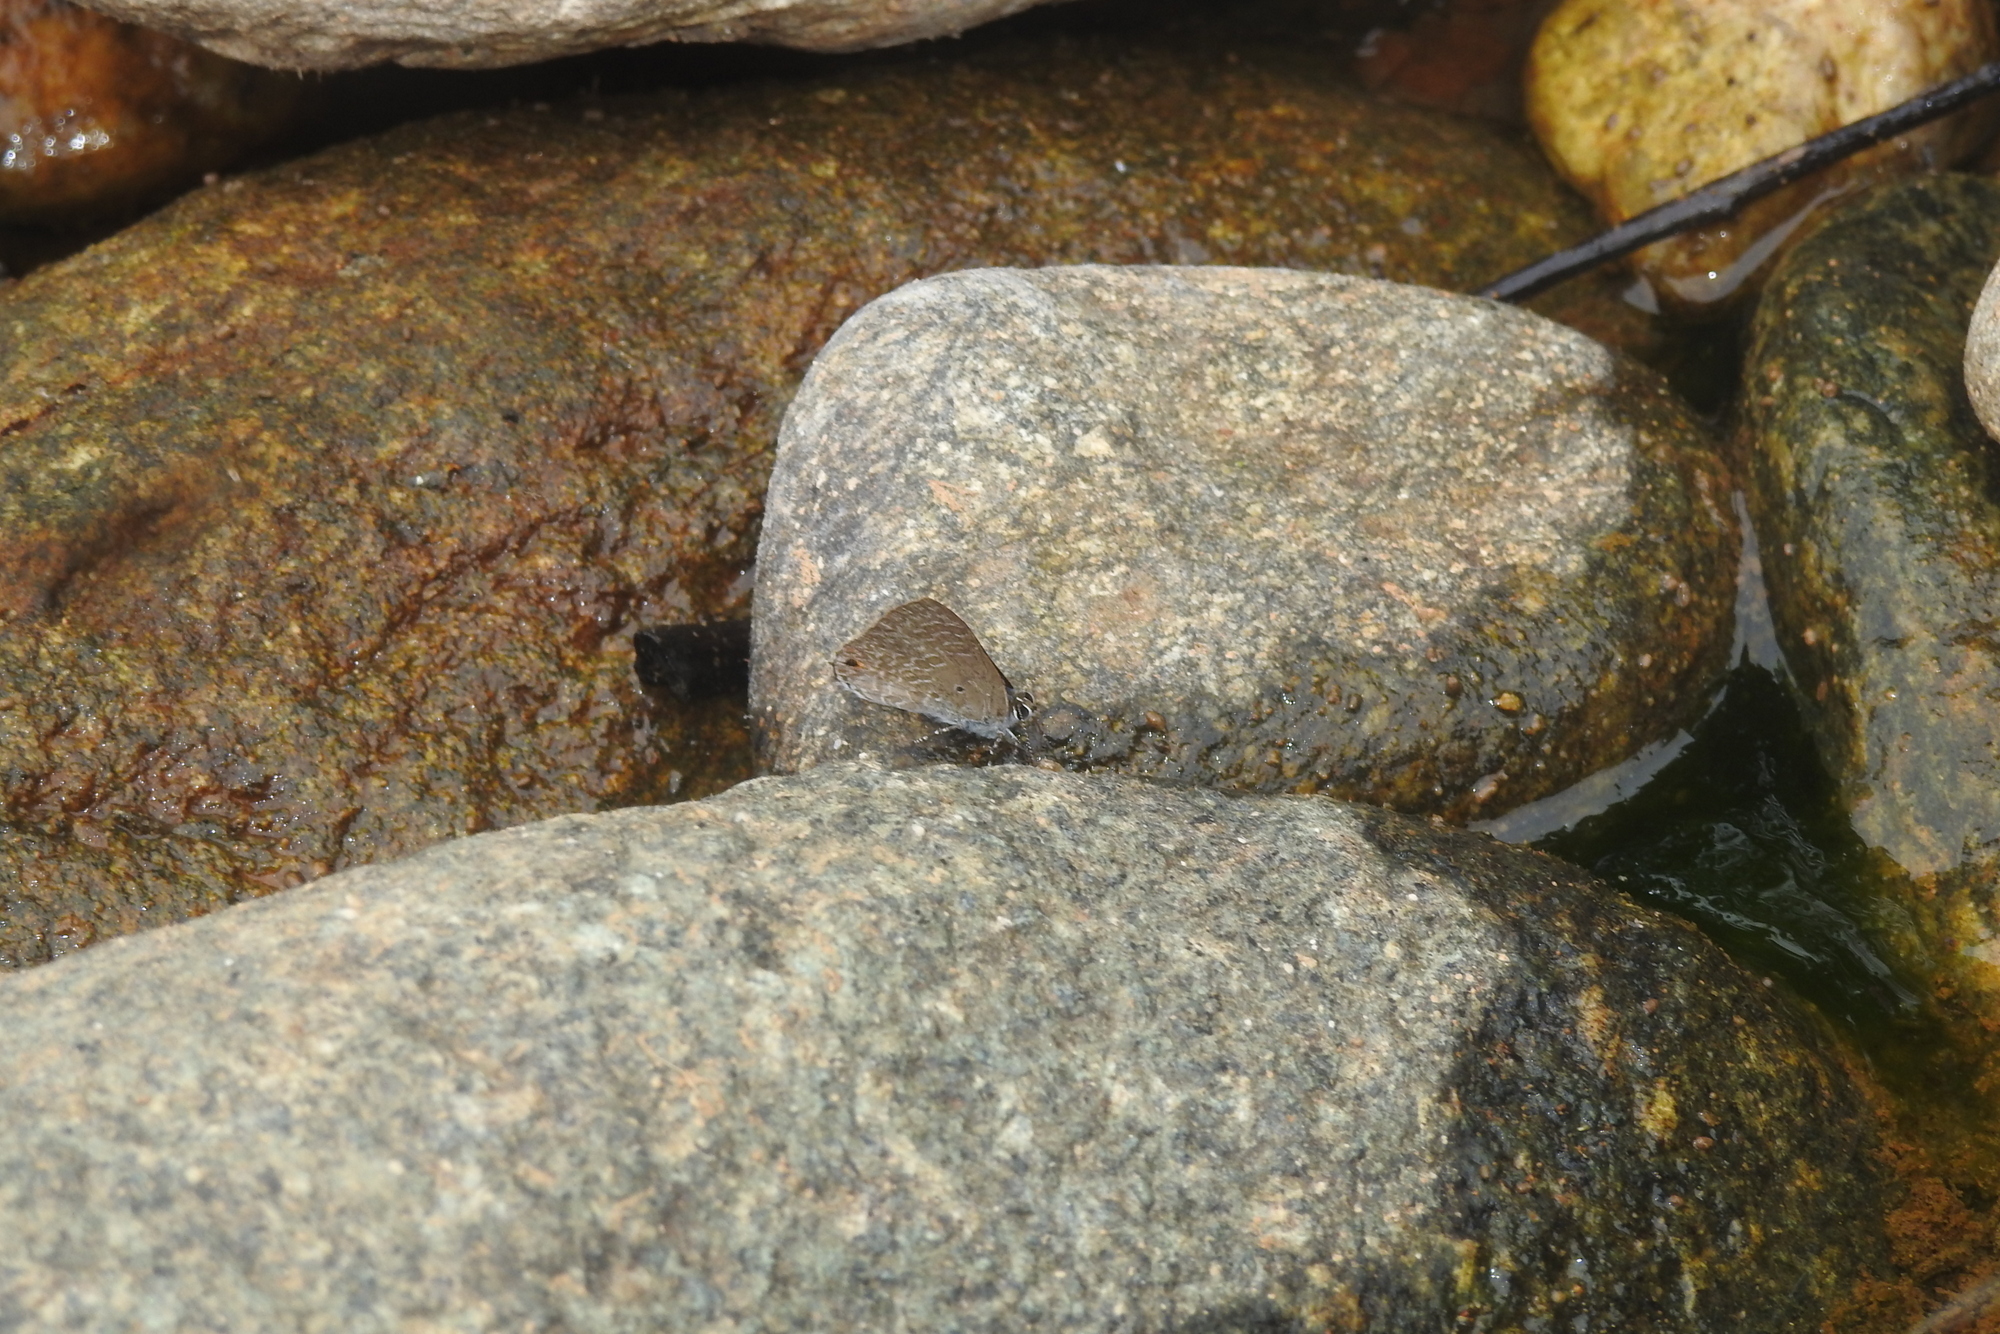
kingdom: Animalia
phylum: Arthropoda
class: Insecta
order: Lepidoptera
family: Lycaenidae
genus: Anthene
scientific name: Anthene lycaenina
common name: Pointed ciliate blue
